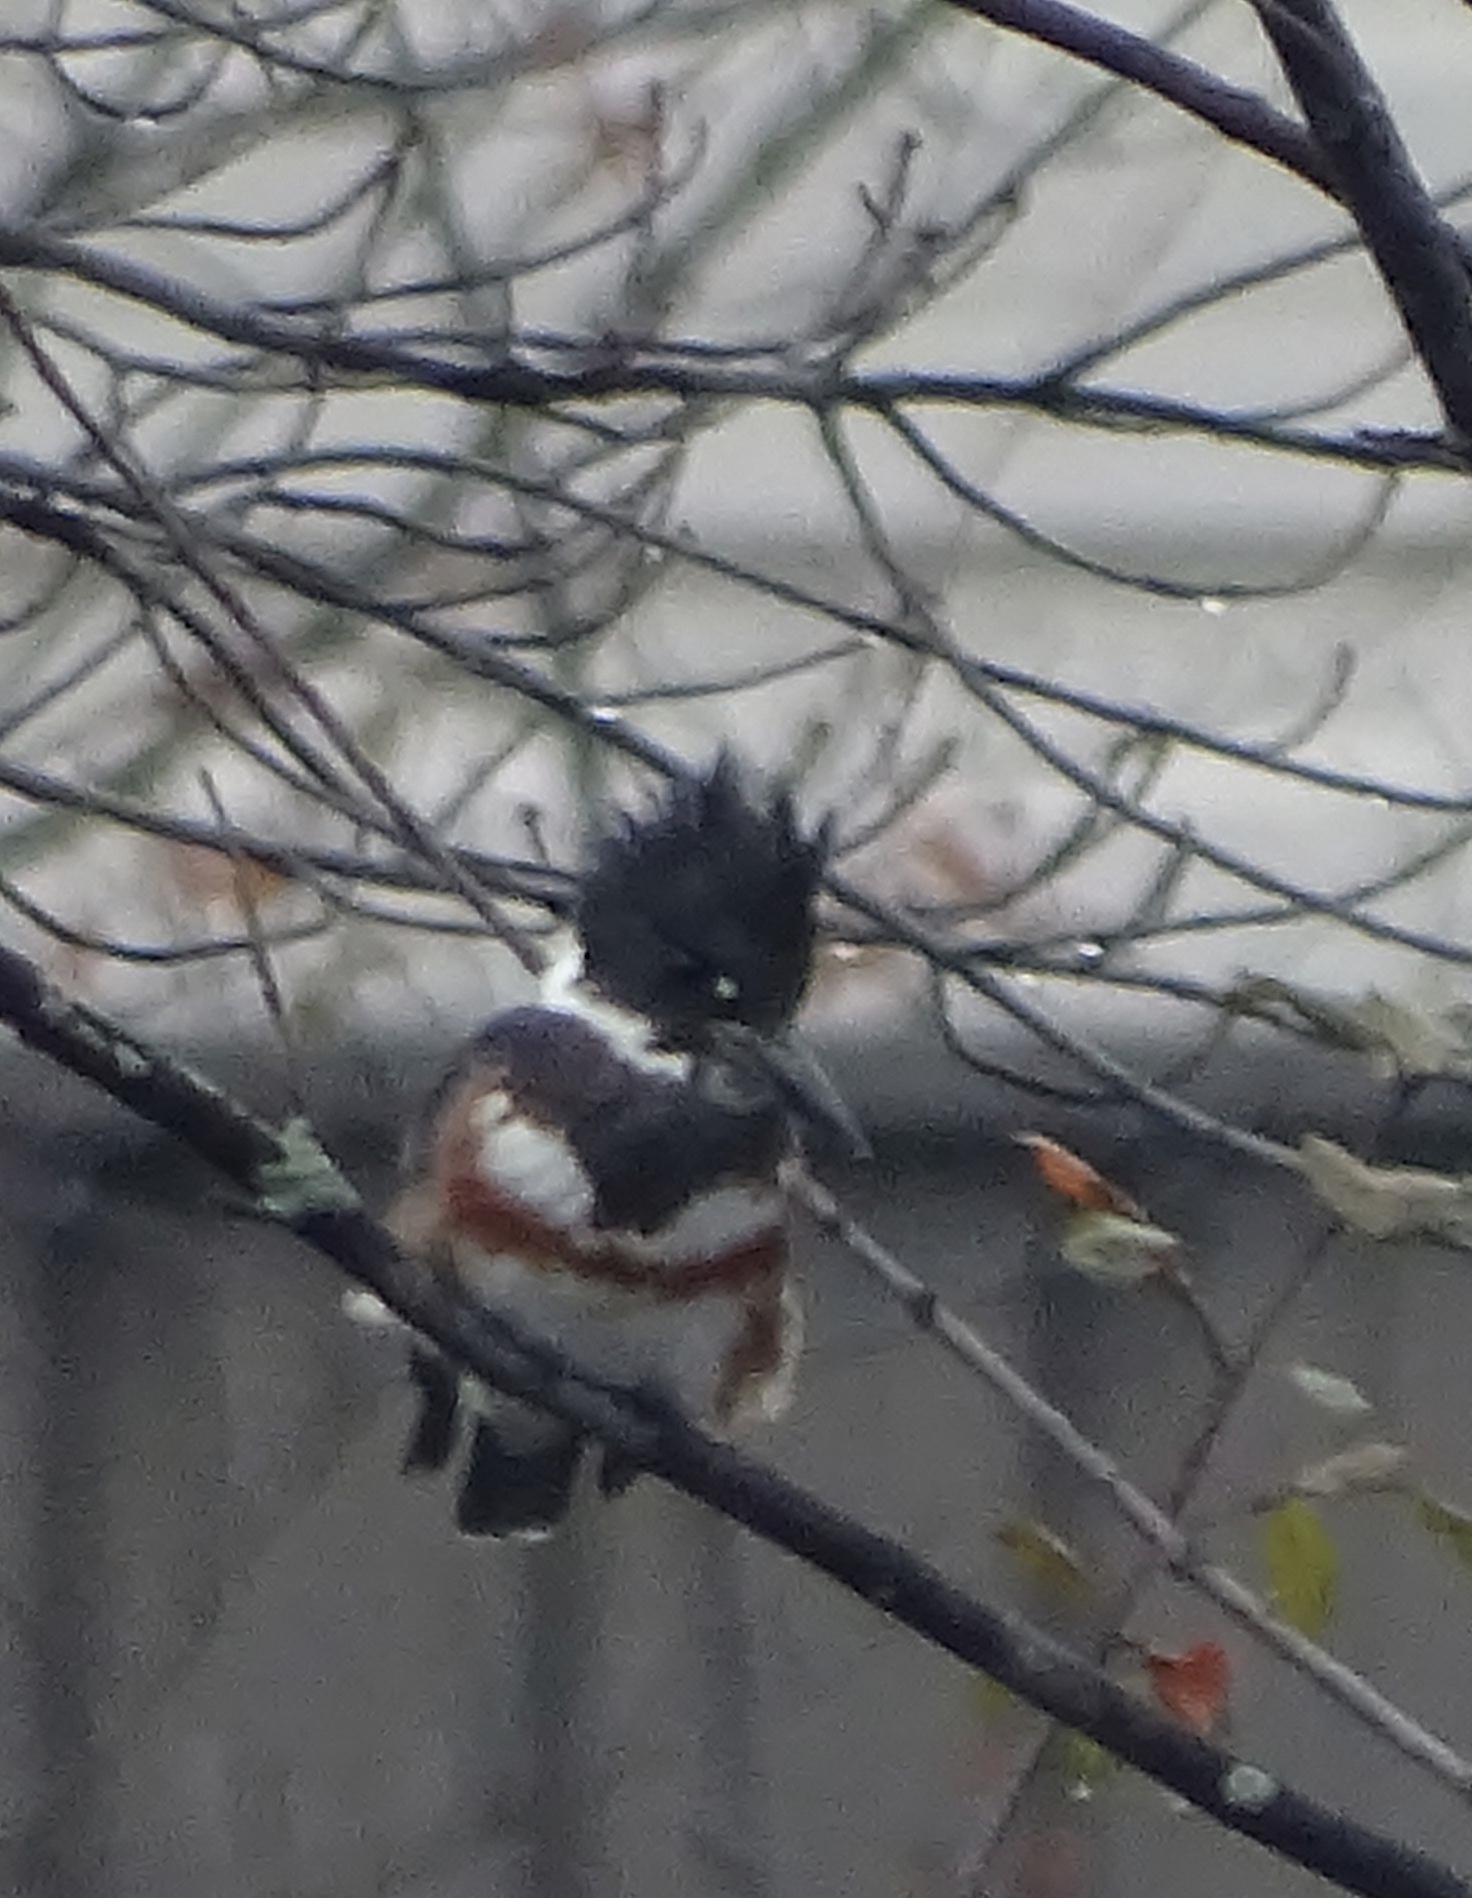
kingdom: Animalia
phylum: Chordata
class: Aves
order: Coraciiformes
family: Alcedinidae
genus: Megaceryle
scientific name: Megaceryle alcyon
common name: Belted kingfisher
